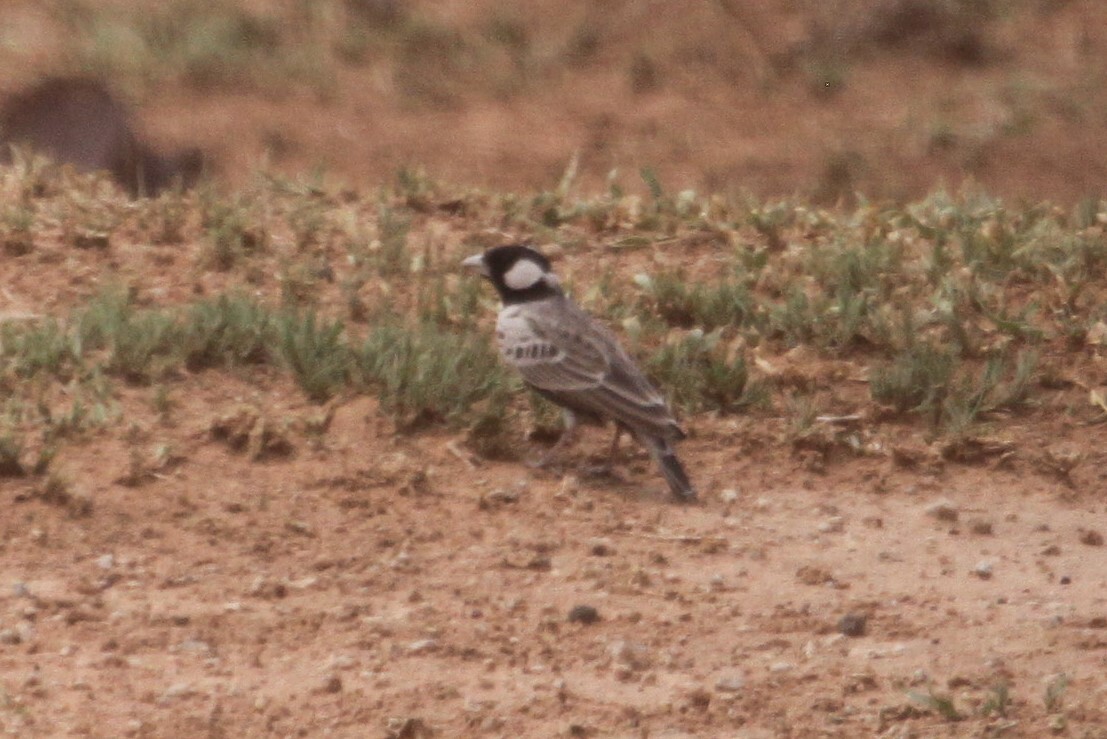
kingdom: Animalia
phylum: Chordata
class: Aves
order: Passeriformes
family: Alaudidae
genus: Eremopterix
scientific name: Eremopterix verticalis
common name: Grey-backed sparrow-lark
